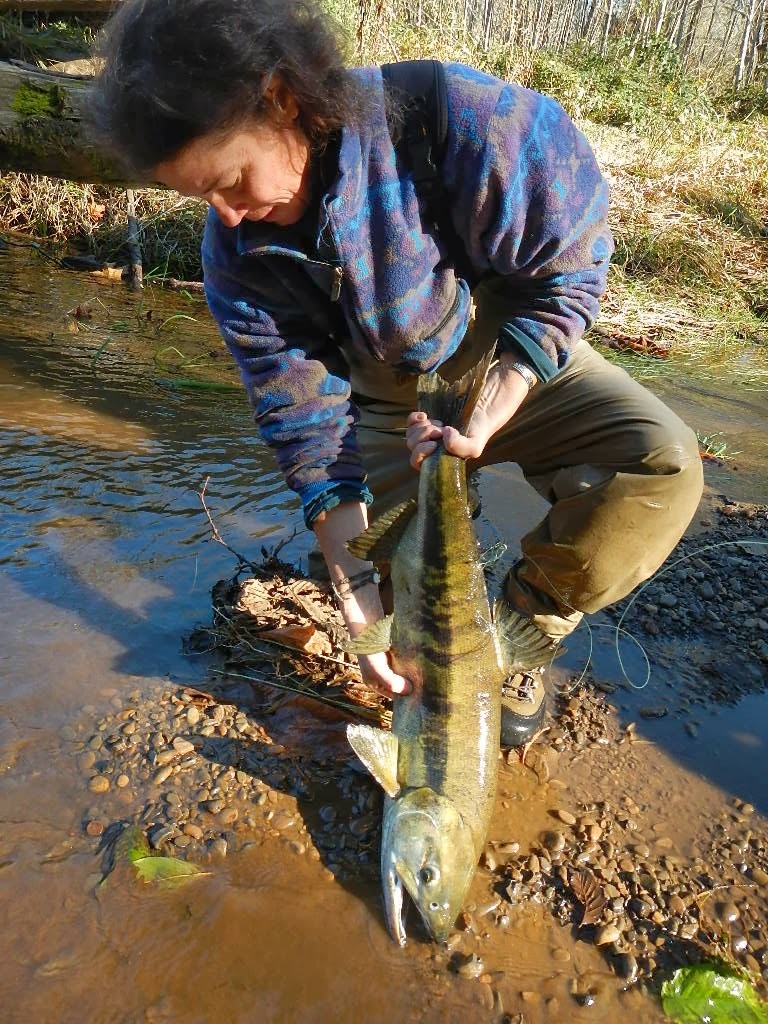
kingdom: Animalia
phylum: Chordata
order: Salmoniformes
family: Salmonidae
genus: Oncorhynchus
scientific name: Oncorhynchus keta
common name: Chum salmon
